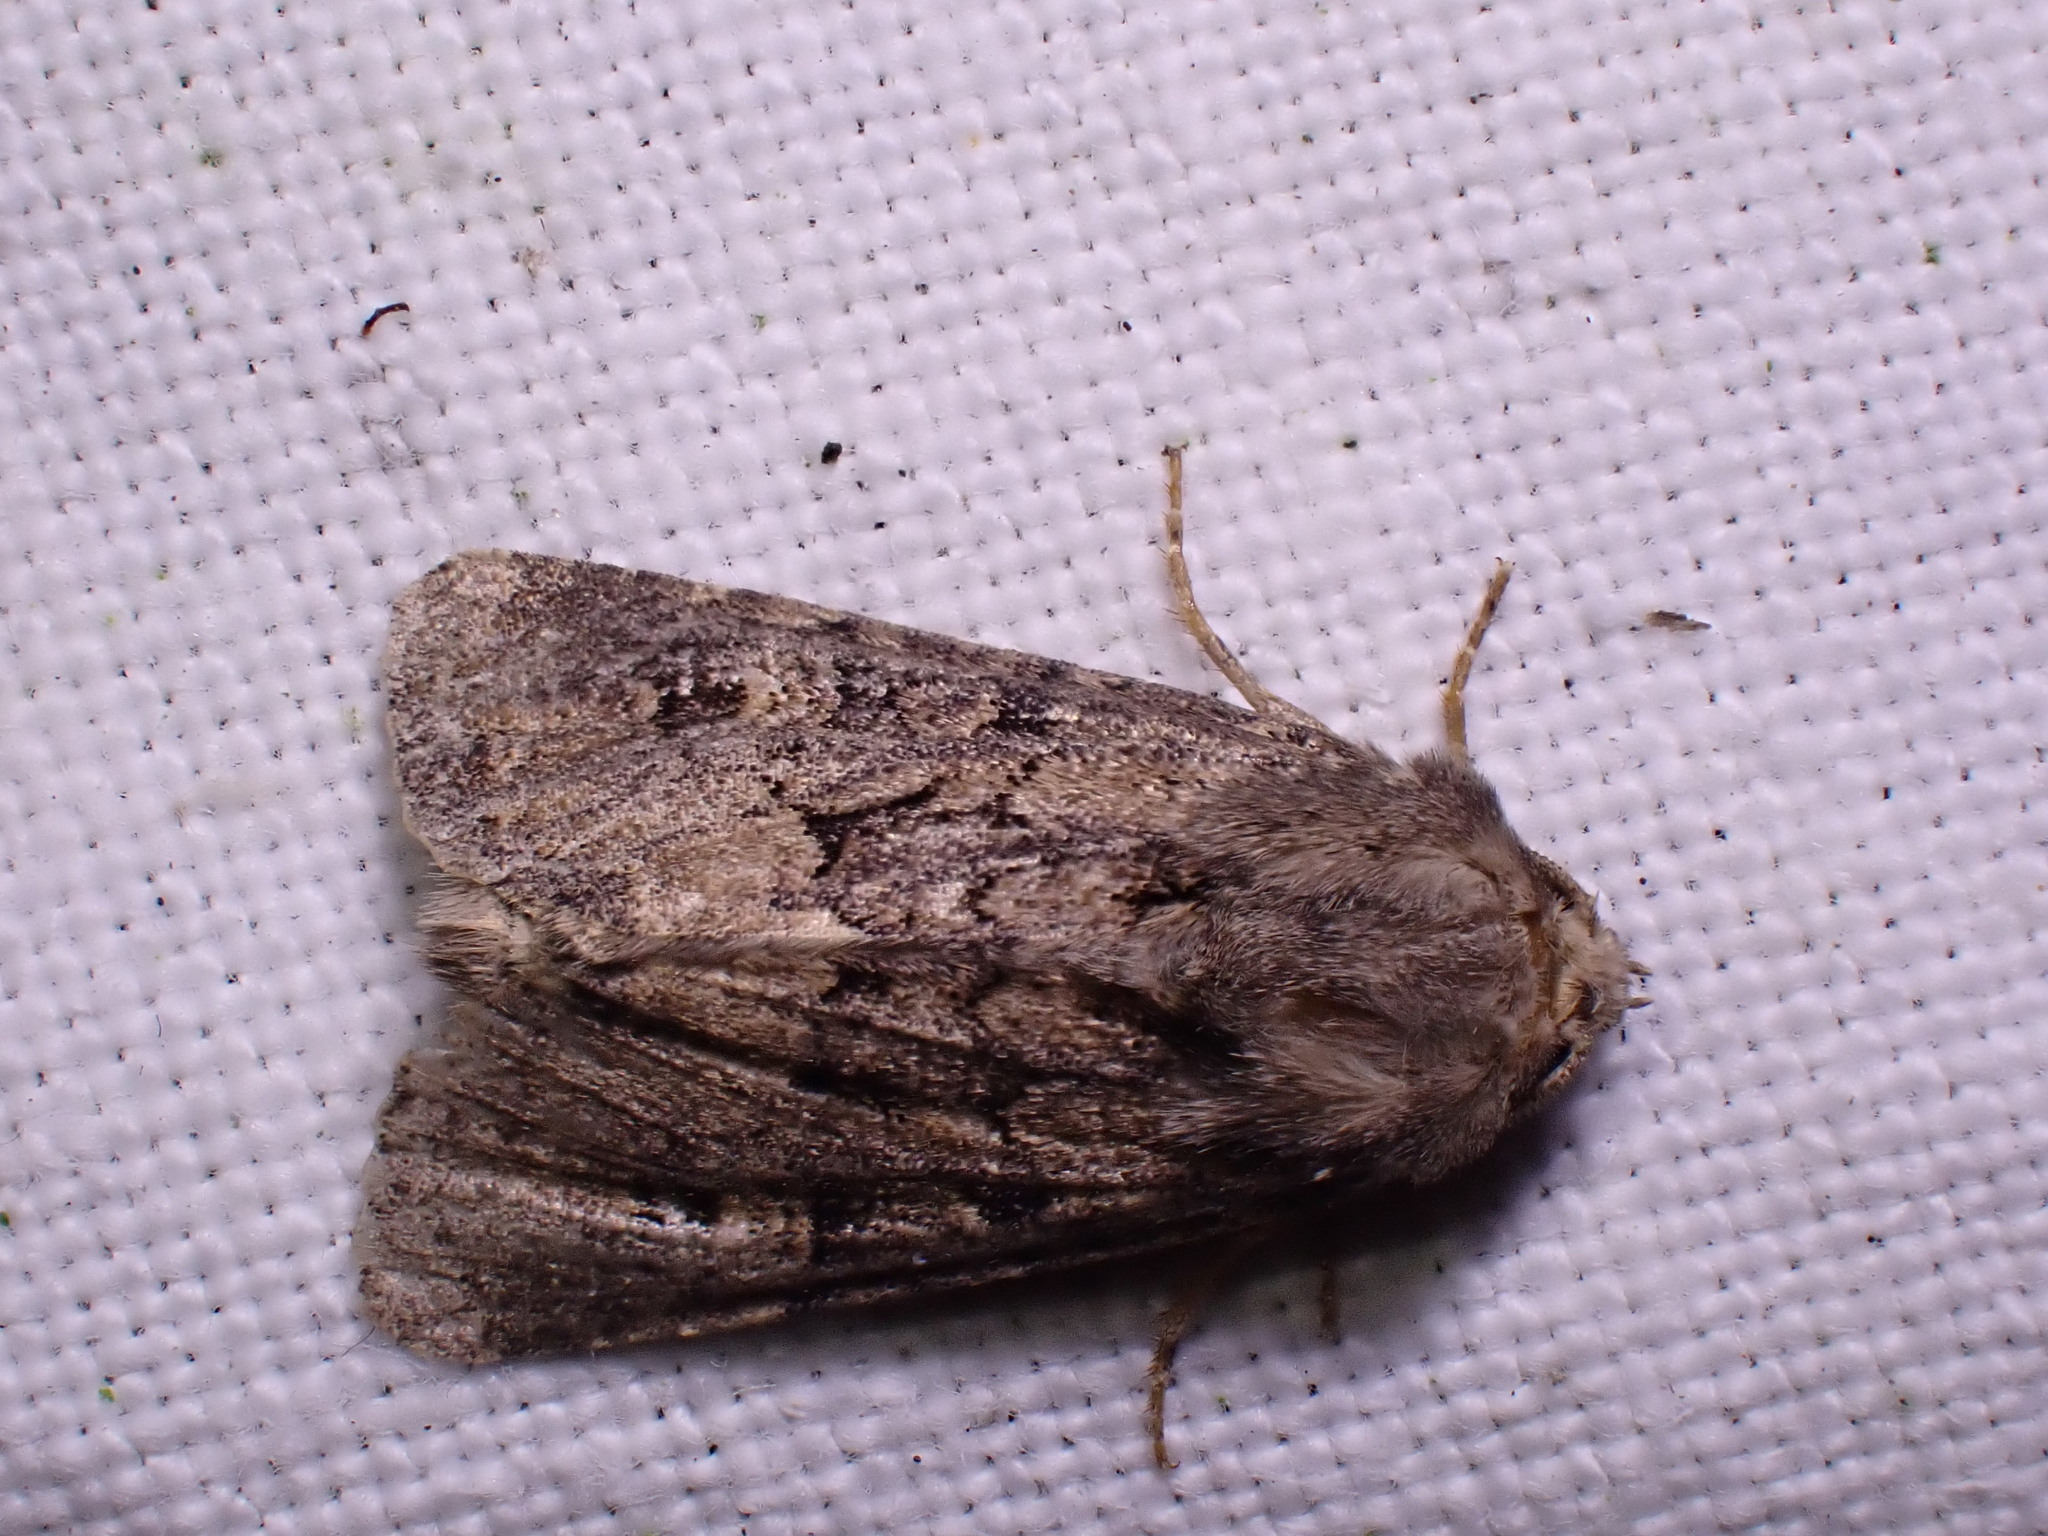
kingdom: Animalia
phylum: Arthropoda
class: Insecta
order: Lepidoptera
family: Noctuidae
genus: Luperina
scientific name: Luperina testacea
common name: Flounced rustic
